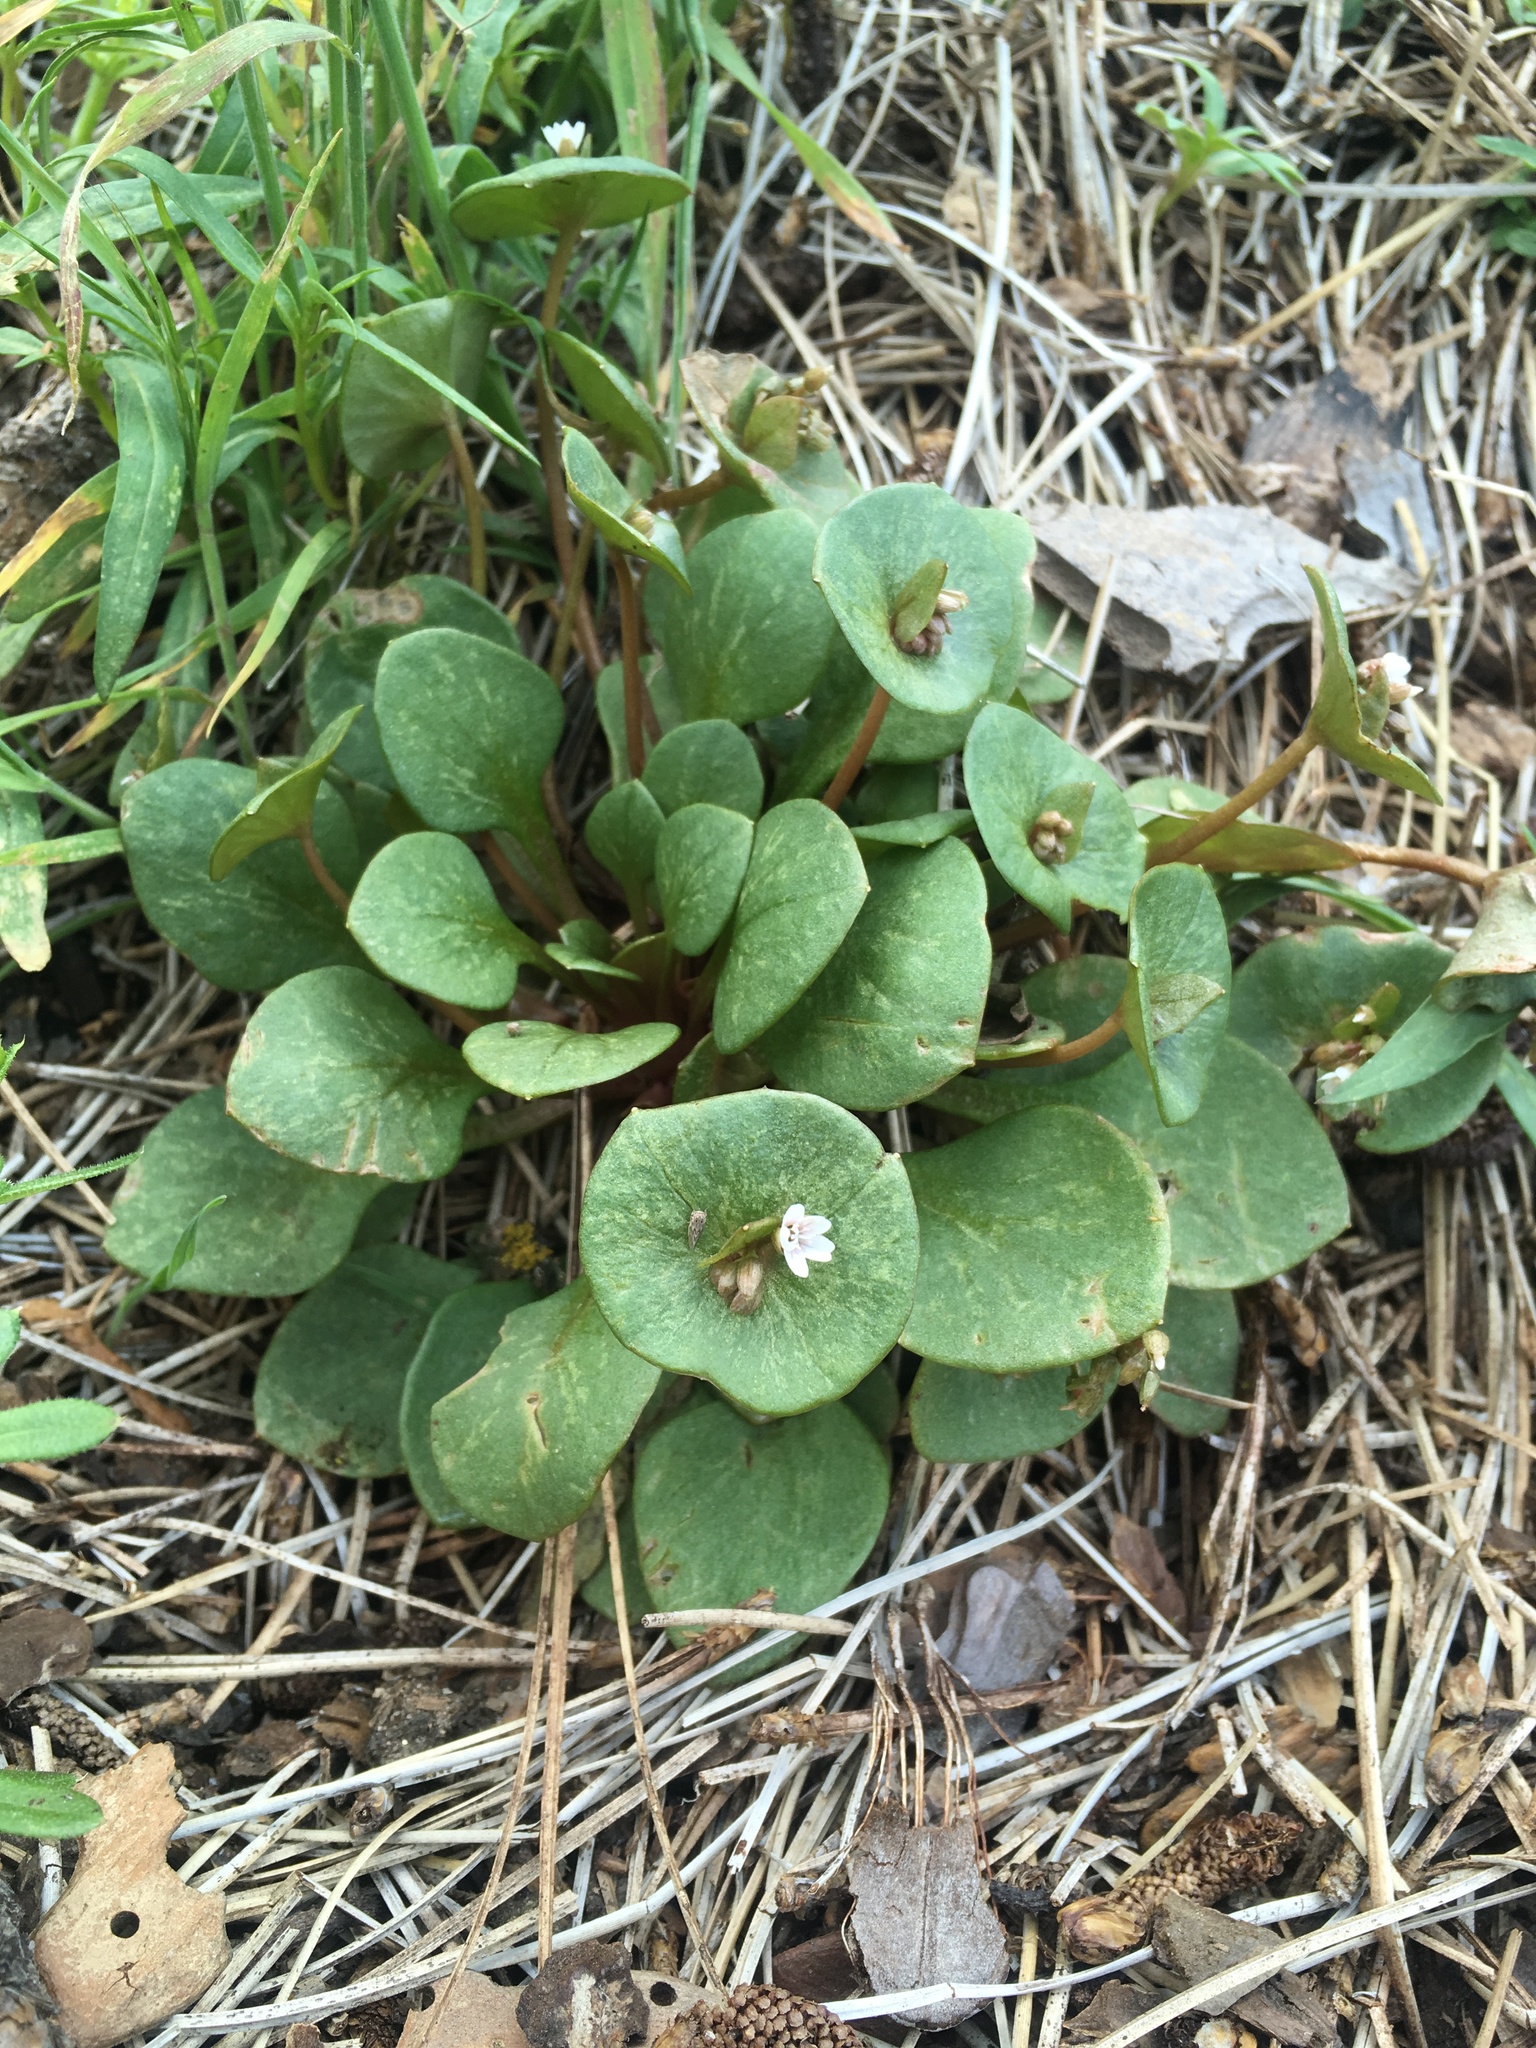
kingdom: Plantae
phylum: Tracheophyta
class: Magnoliopsida
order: Caryophyllales
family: Montiaceae
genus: Claytonia
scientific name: Claytonia perfoliata
